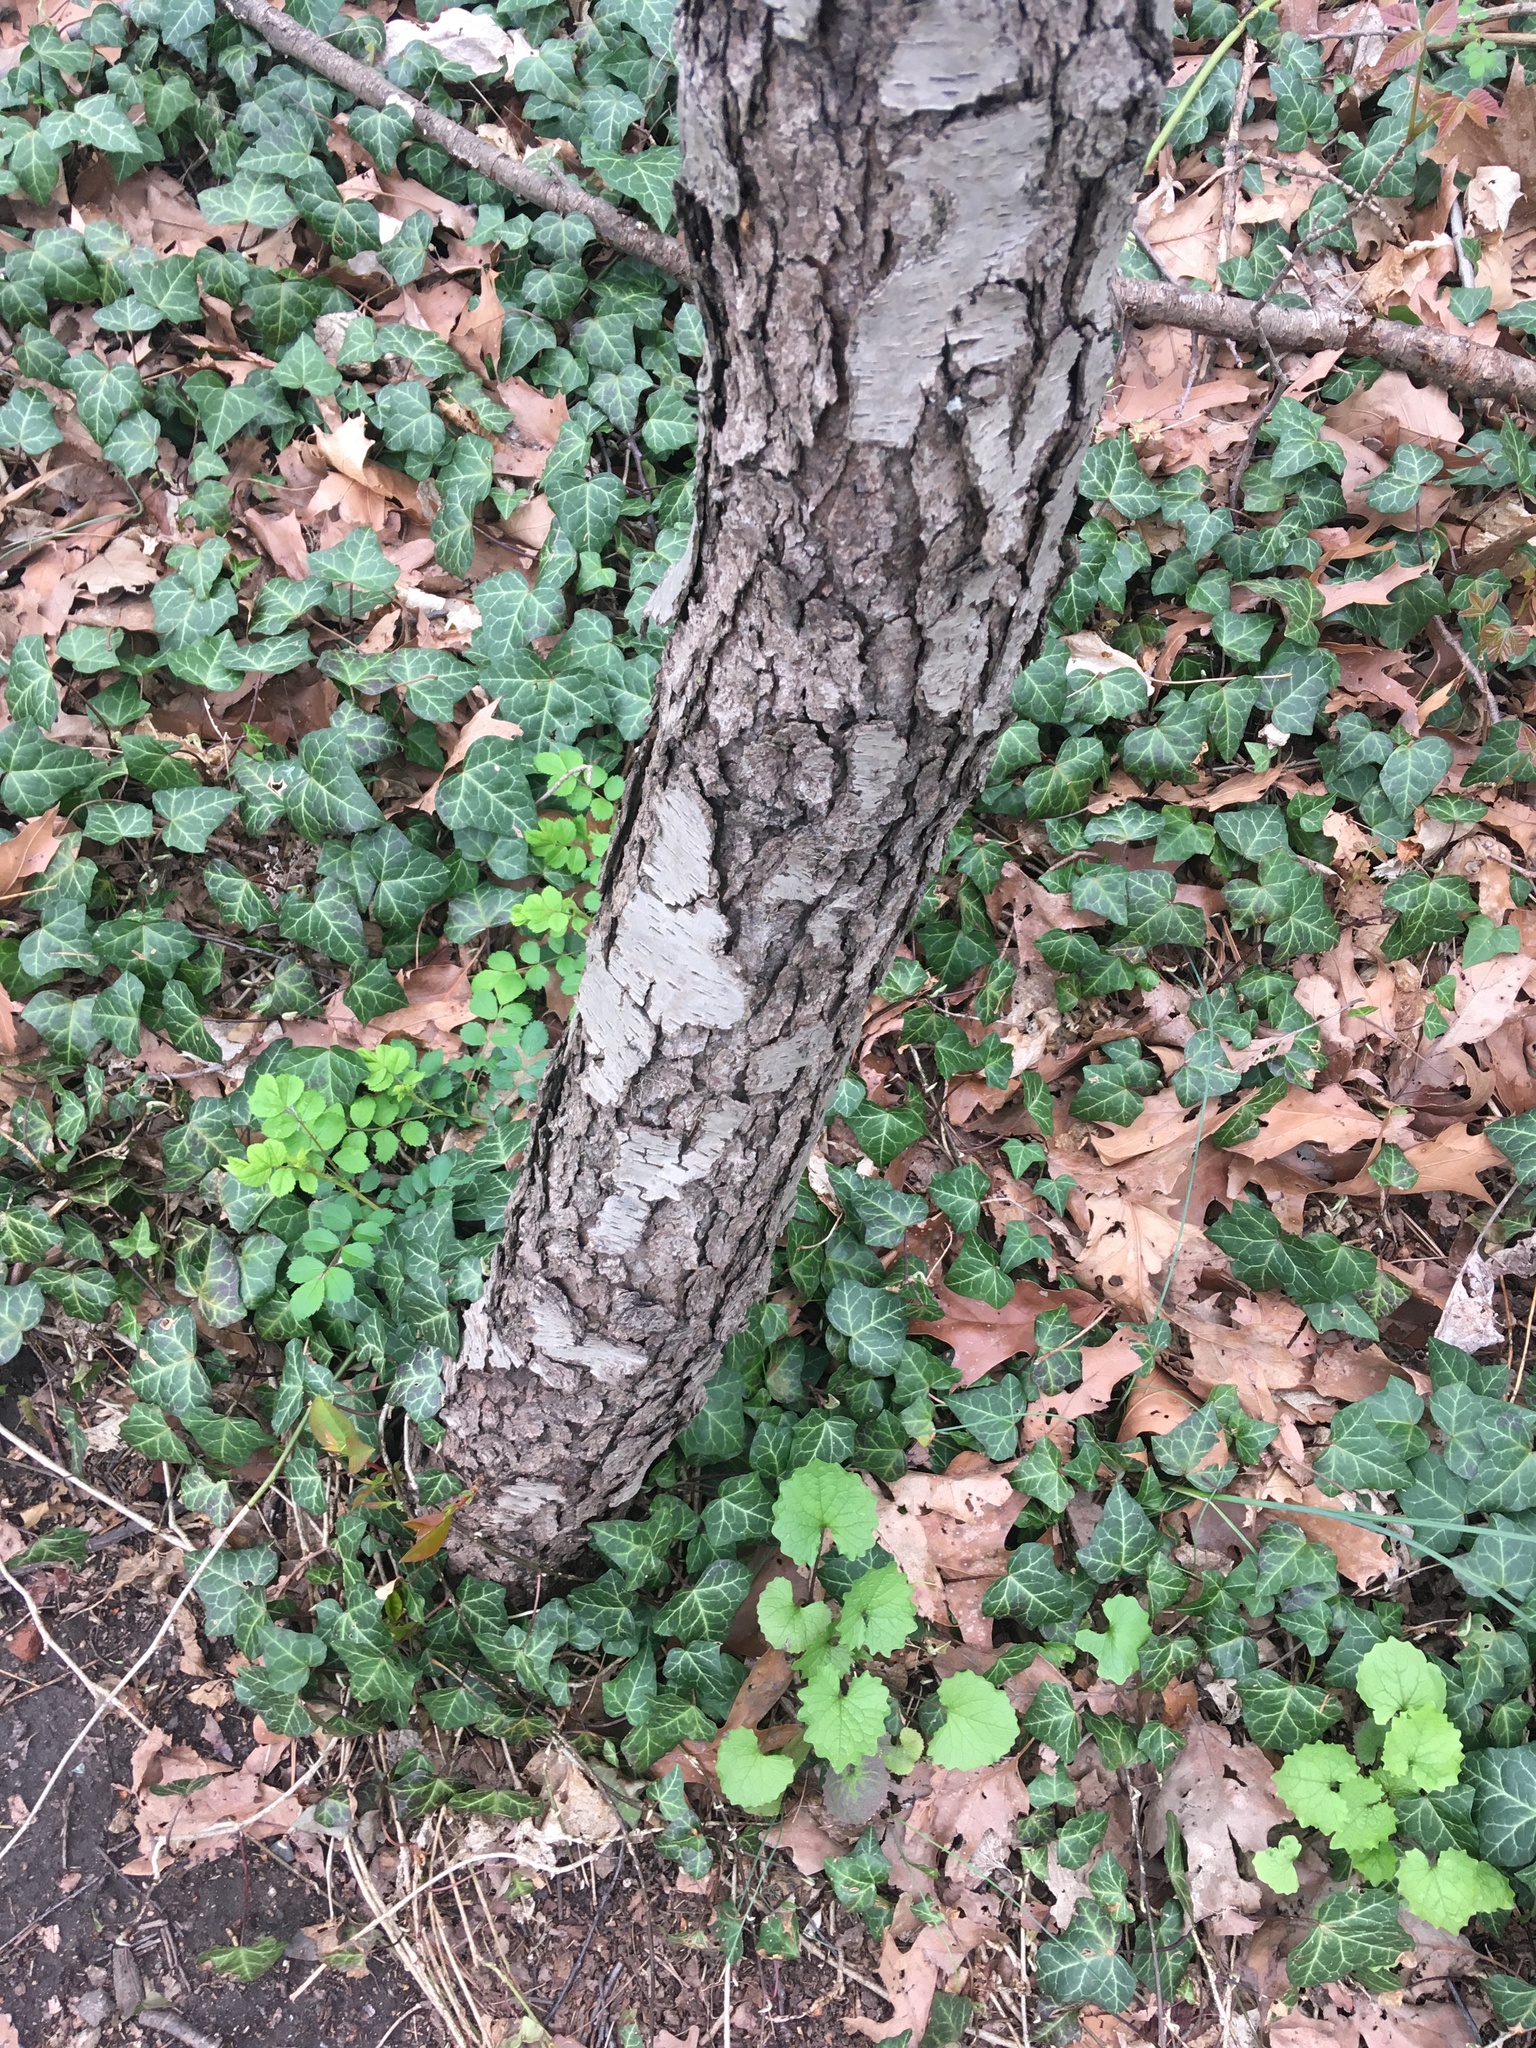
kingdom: Plantae
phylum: Tracheophyta
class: Magnoliopsida
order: Rosales
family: Rosaceae
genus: Prunus
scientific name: Prunus serotina
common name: Black cherry
